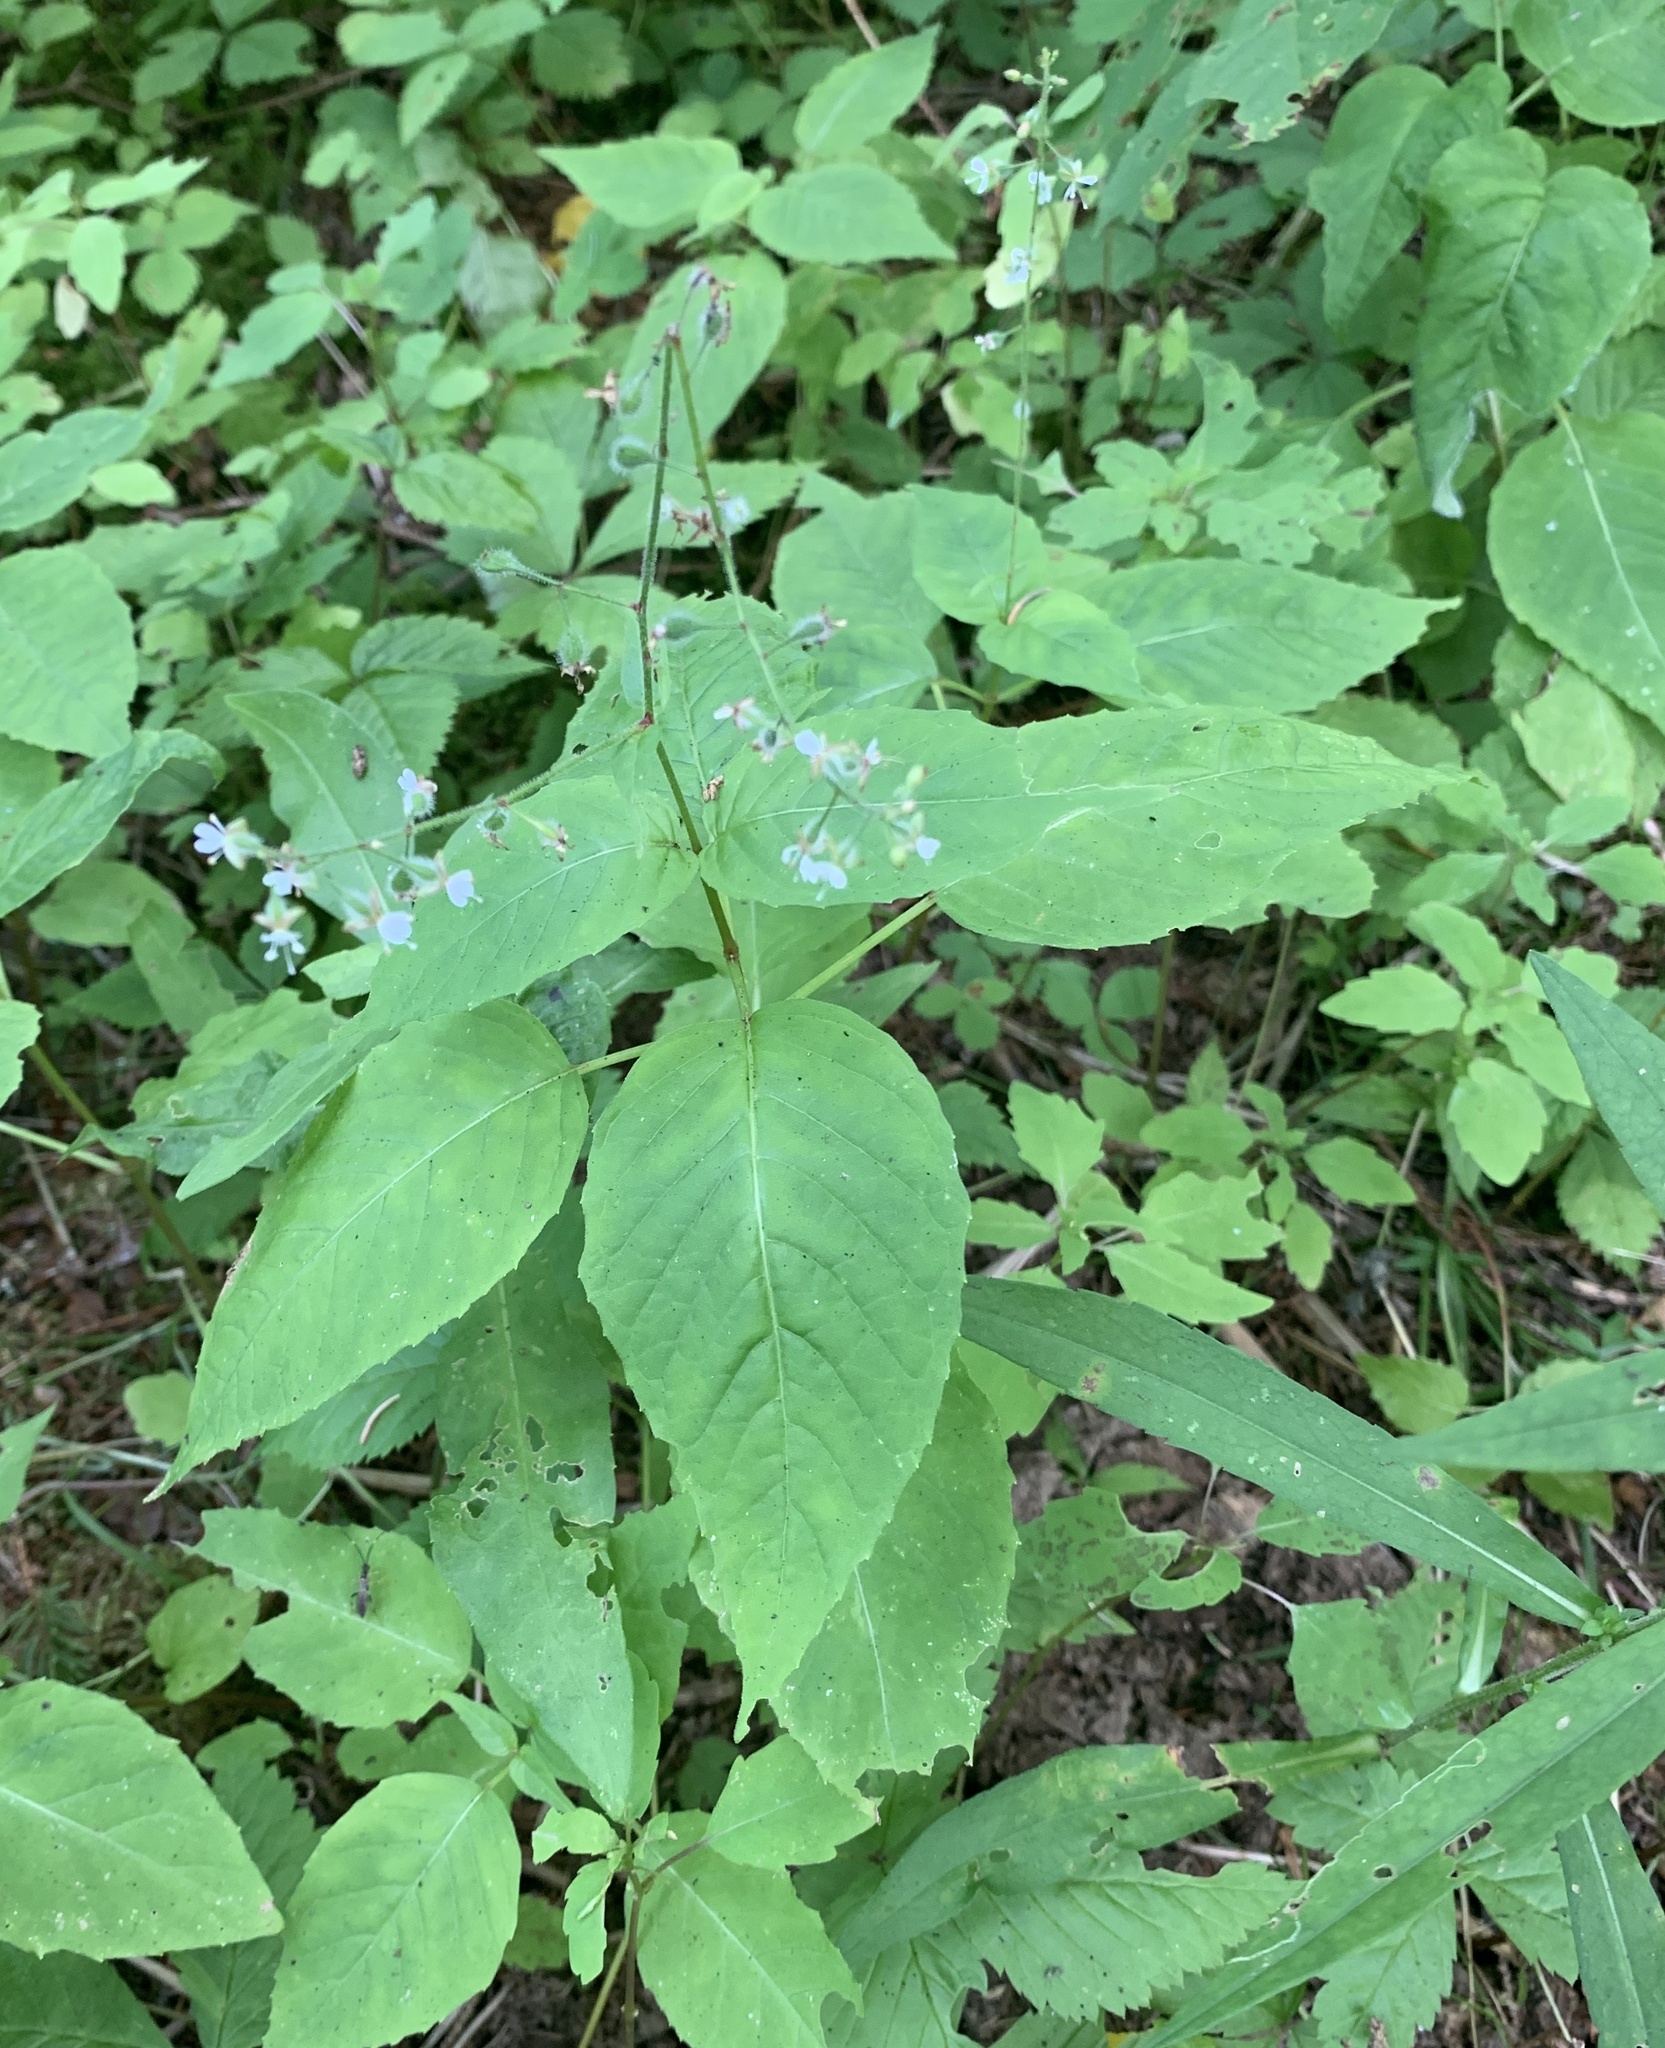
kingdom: Plantae
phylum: Tracheophyta
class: Magnoliopsida
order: Myrtales
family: Onagraceae
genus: Circaea
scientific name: Circaea canadensis
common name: Broad-leaved enchanter's nightshade
